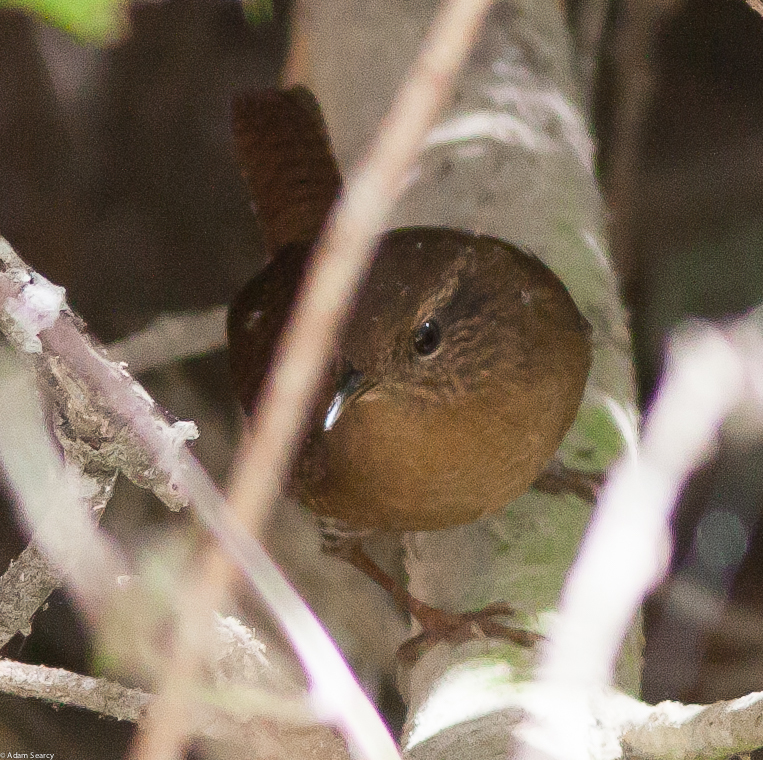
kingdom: Animalia
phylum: Chordata
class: Aves
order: Passeriformes
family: Troglodytidae
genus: Troglodytes
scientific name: Troglodytes pacificus
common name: Pacific wren
